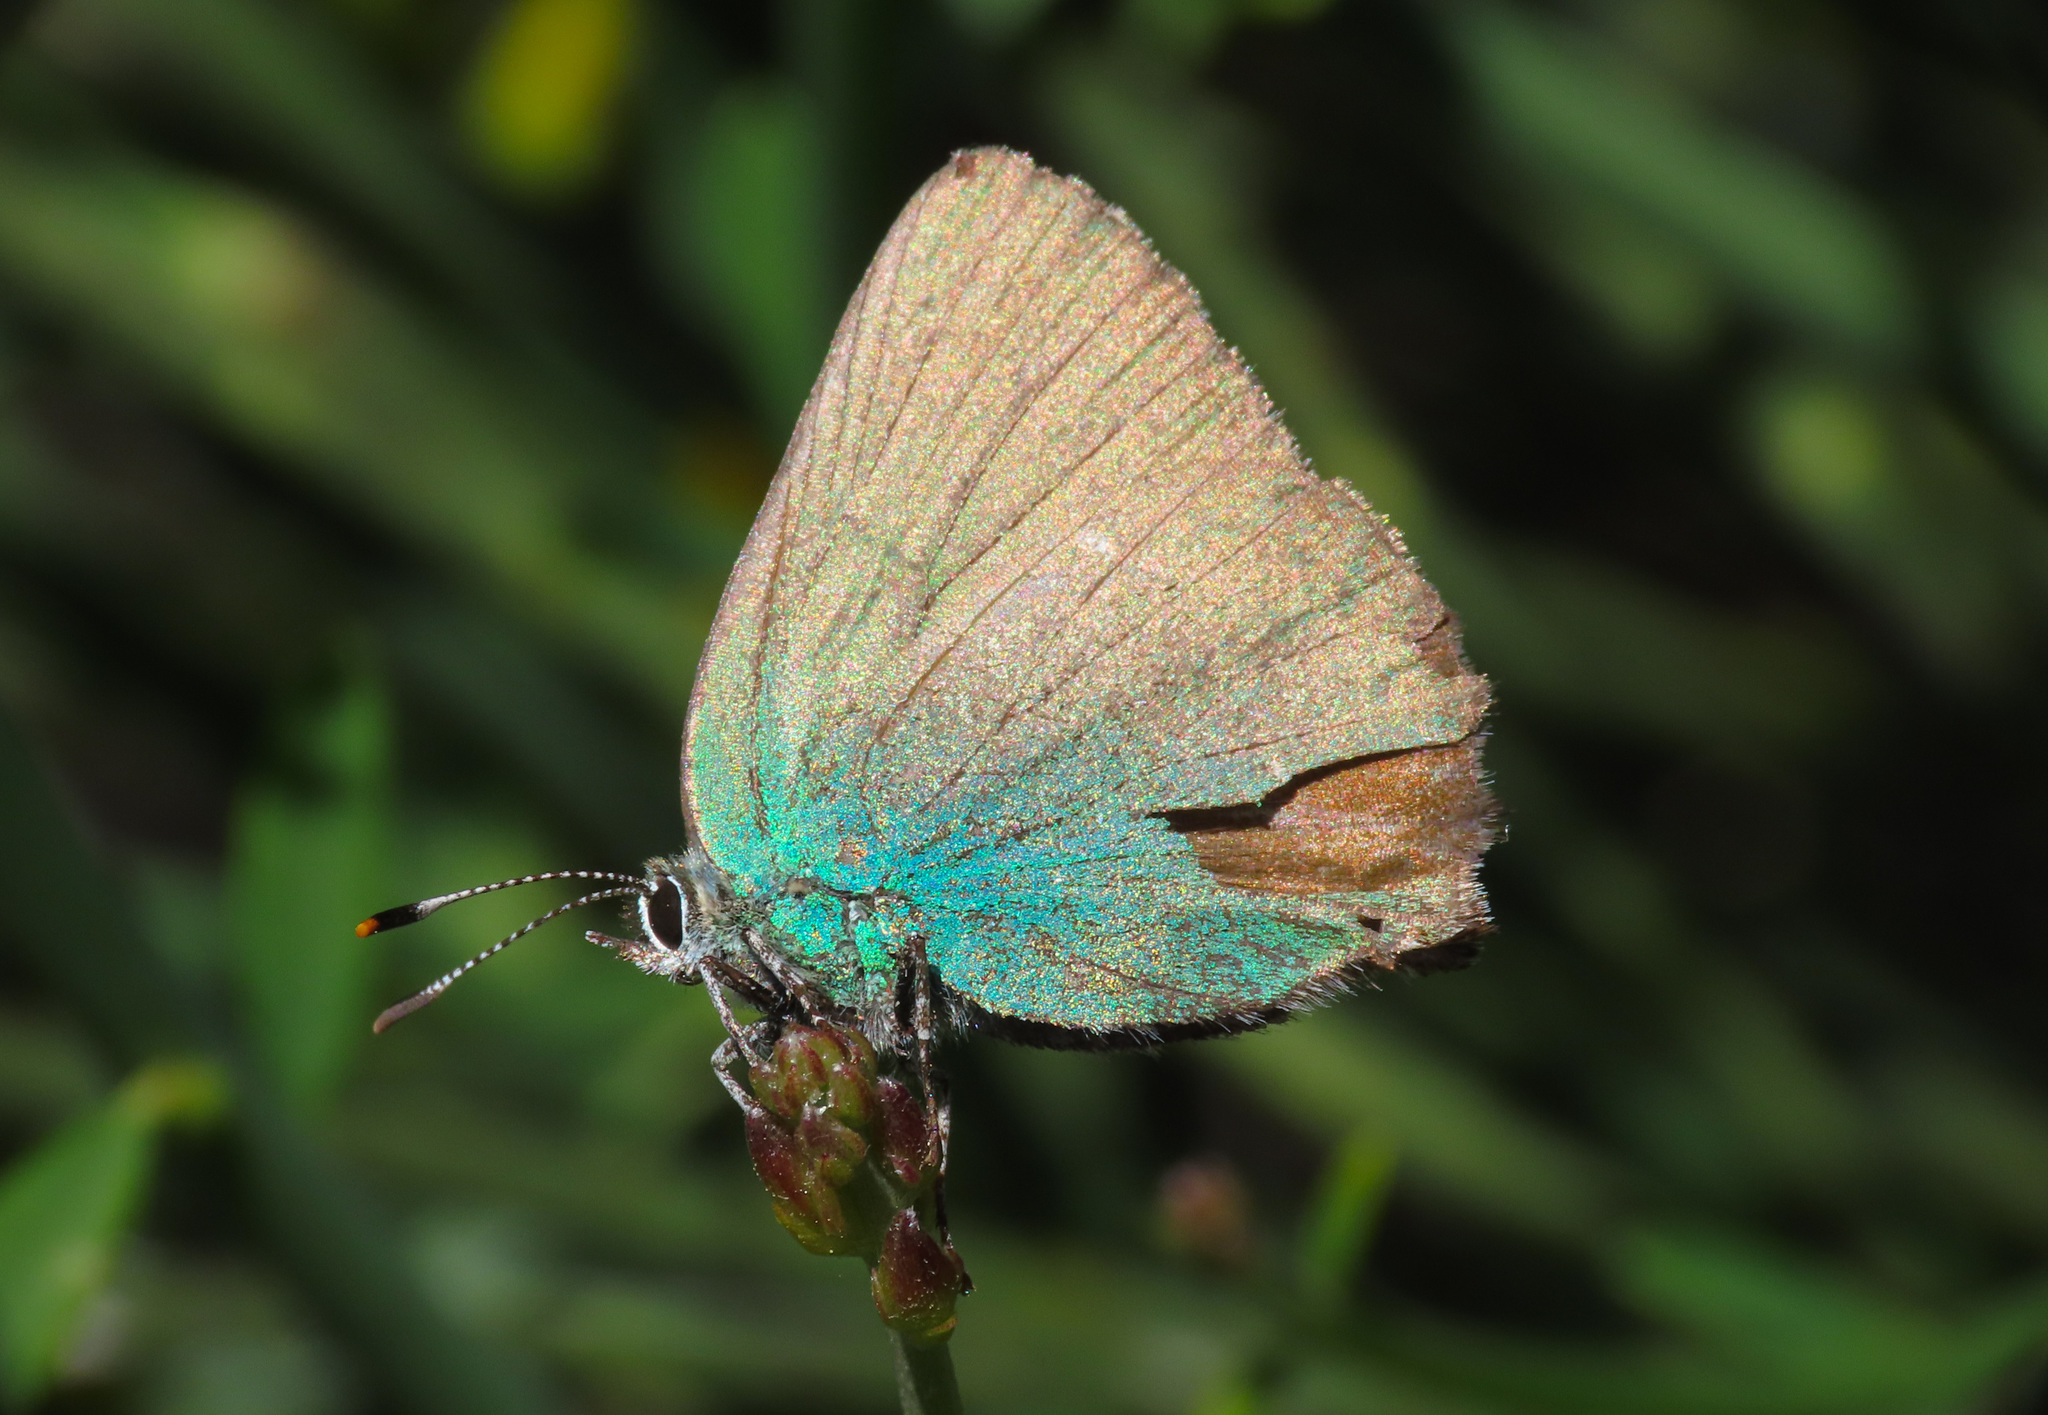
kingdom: Animalia
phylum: Arthropoda
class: Insecta
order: Lepidoptera
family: Lycaenidae
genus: Callophrys
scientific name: Callophrys rubi
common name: Green hairstreak
